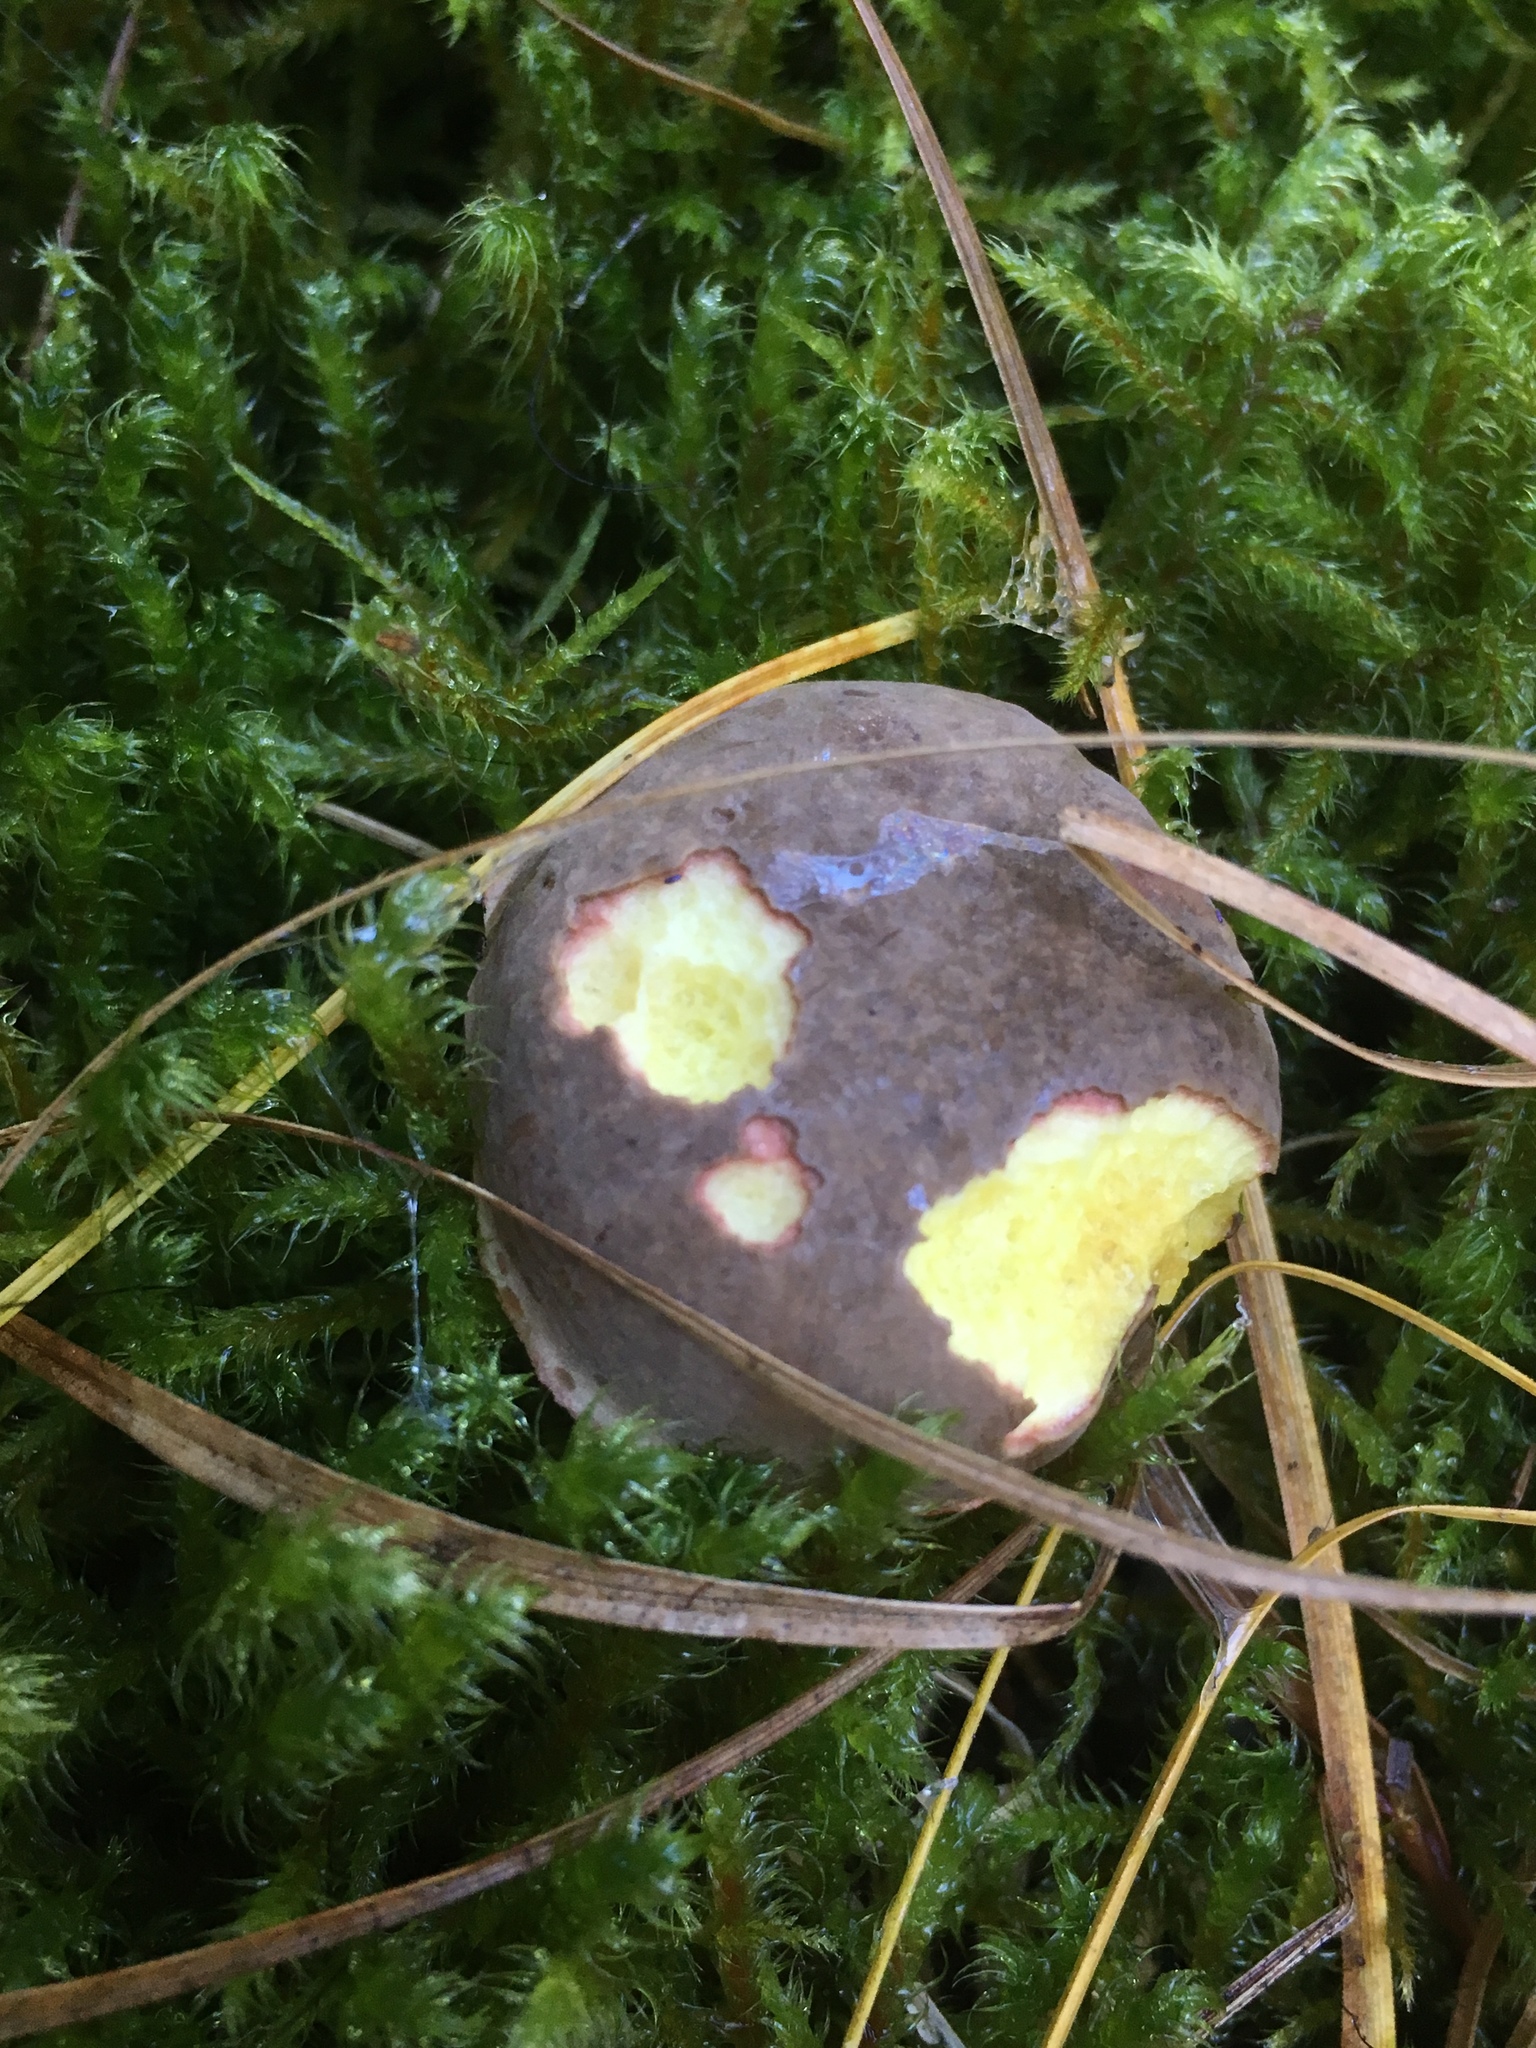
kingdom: Fungi
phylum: Basidiomycota
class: Agaricomycetes
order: Boletales
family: Boletaceae
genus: Xerocomellus
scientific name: Xerocomellus chrysenteron
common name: Red-cracking bolete
